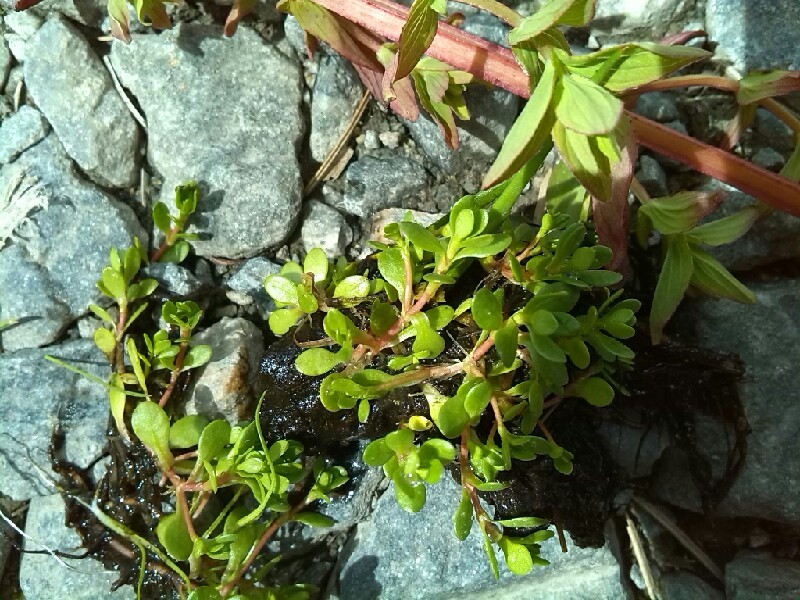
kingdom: Plantae
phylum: Tracheophyta
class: Magnoliopsida
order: Caryophyllales
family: Montiaceae
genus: Montia
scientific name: Montia
